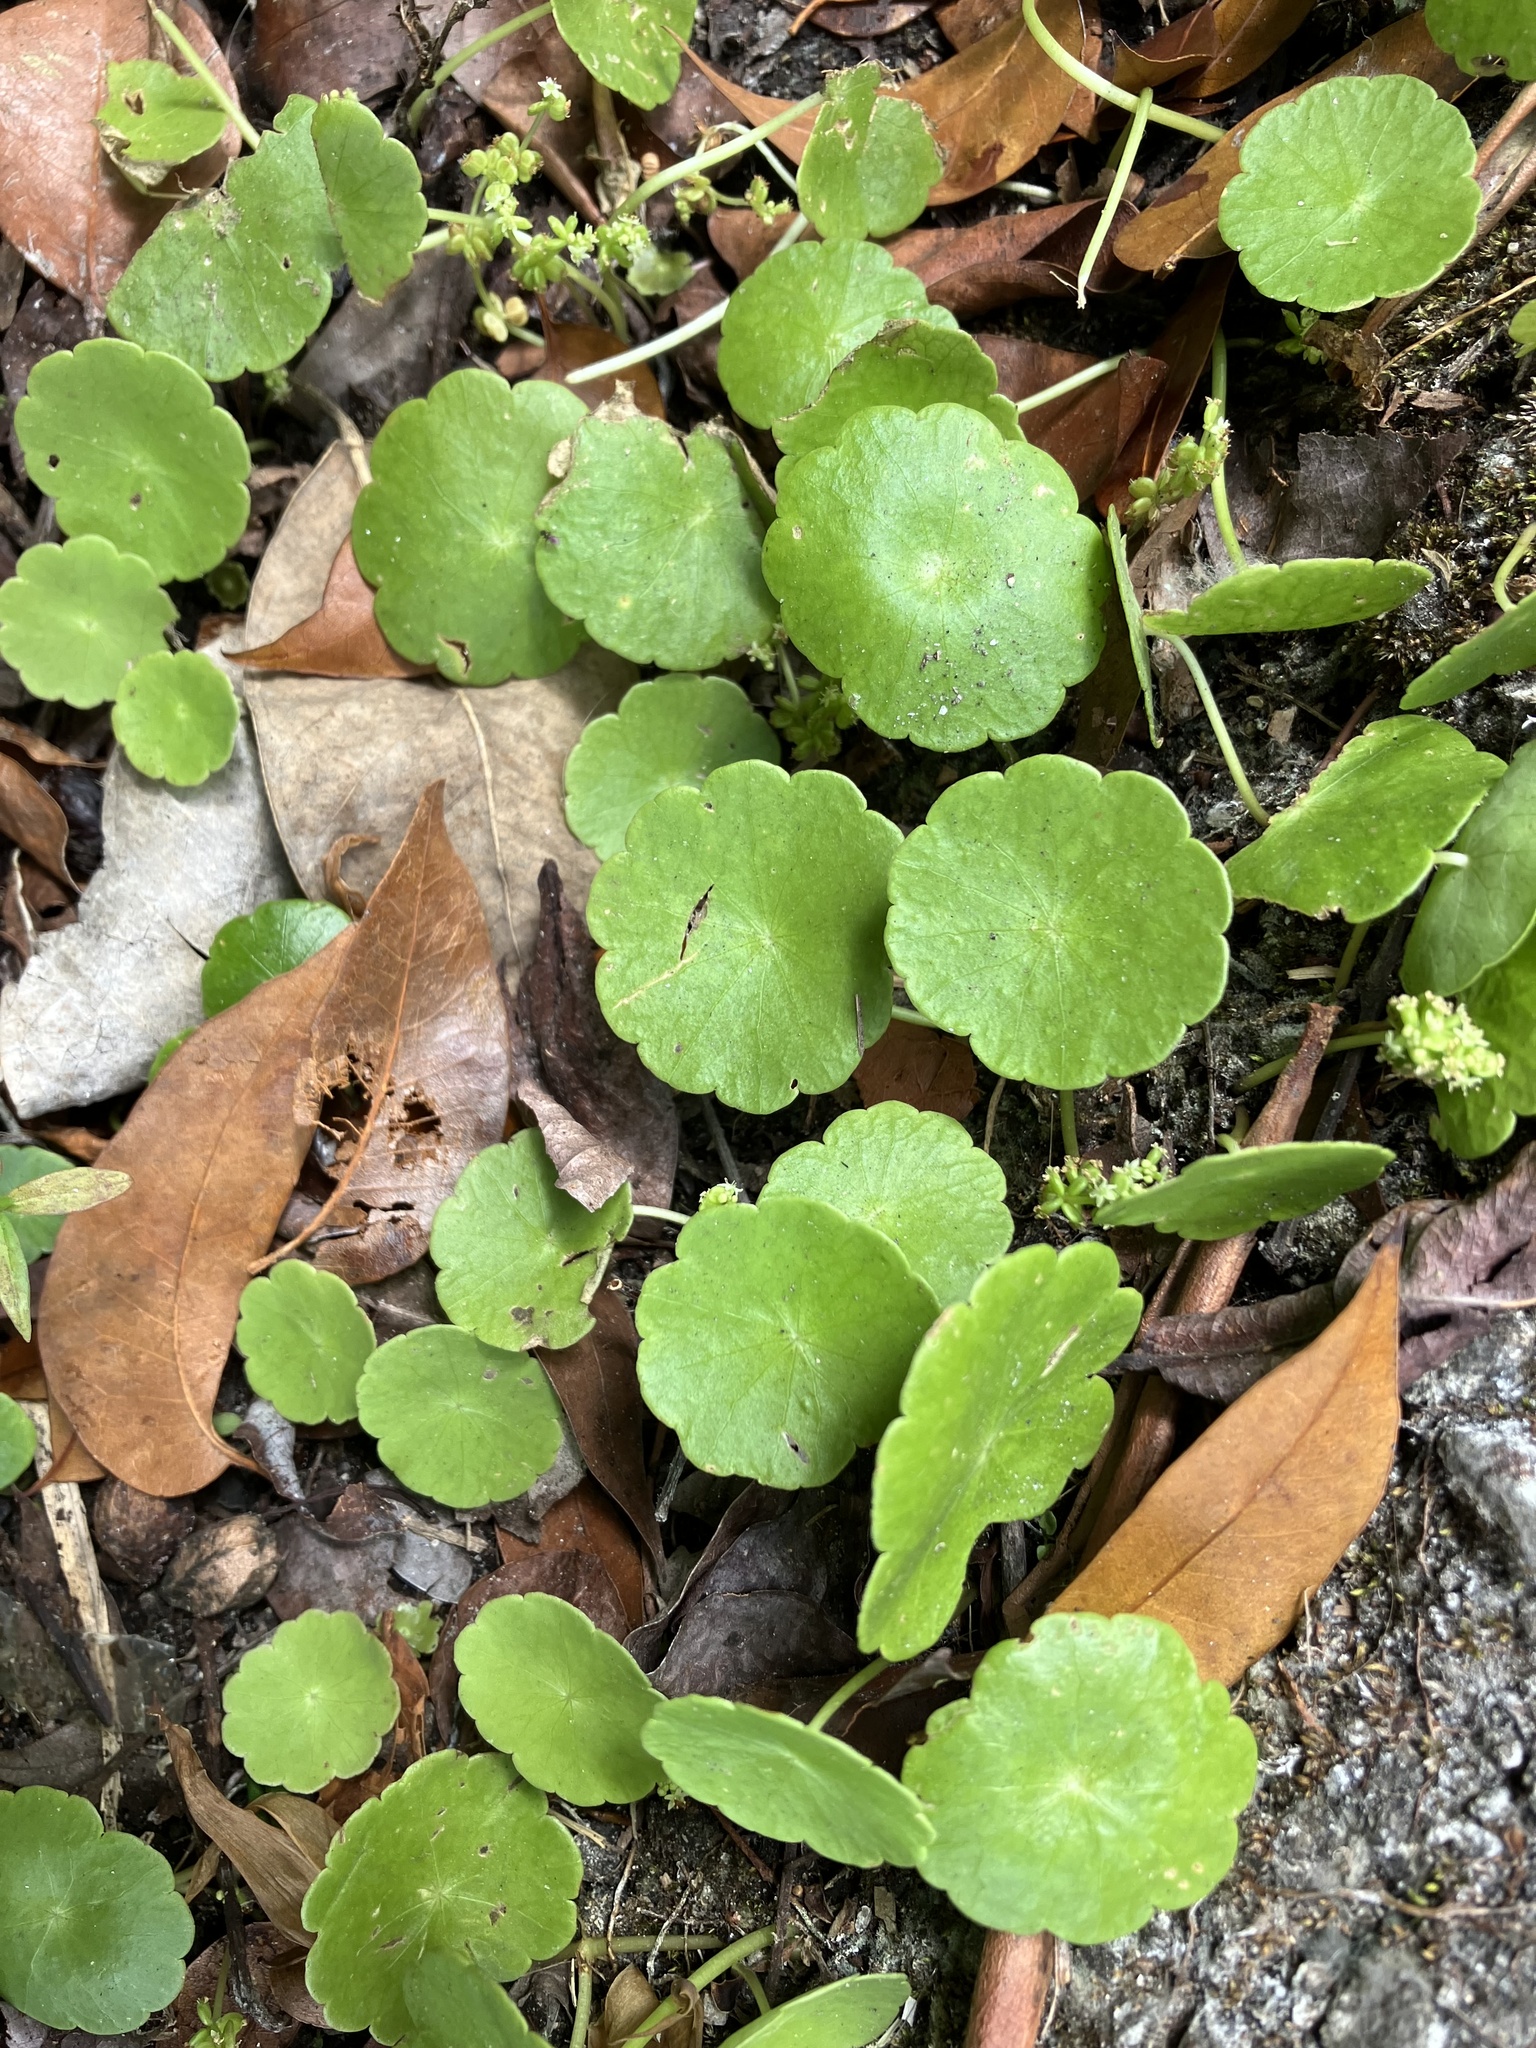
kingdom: Plantae
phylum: Tracheophyta
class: Magnoliopsida
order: Apiales
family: Araliaceae
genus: Hydrocotyle
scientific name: Hydrocotyle verticillata
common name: Whorled marshpennywort
